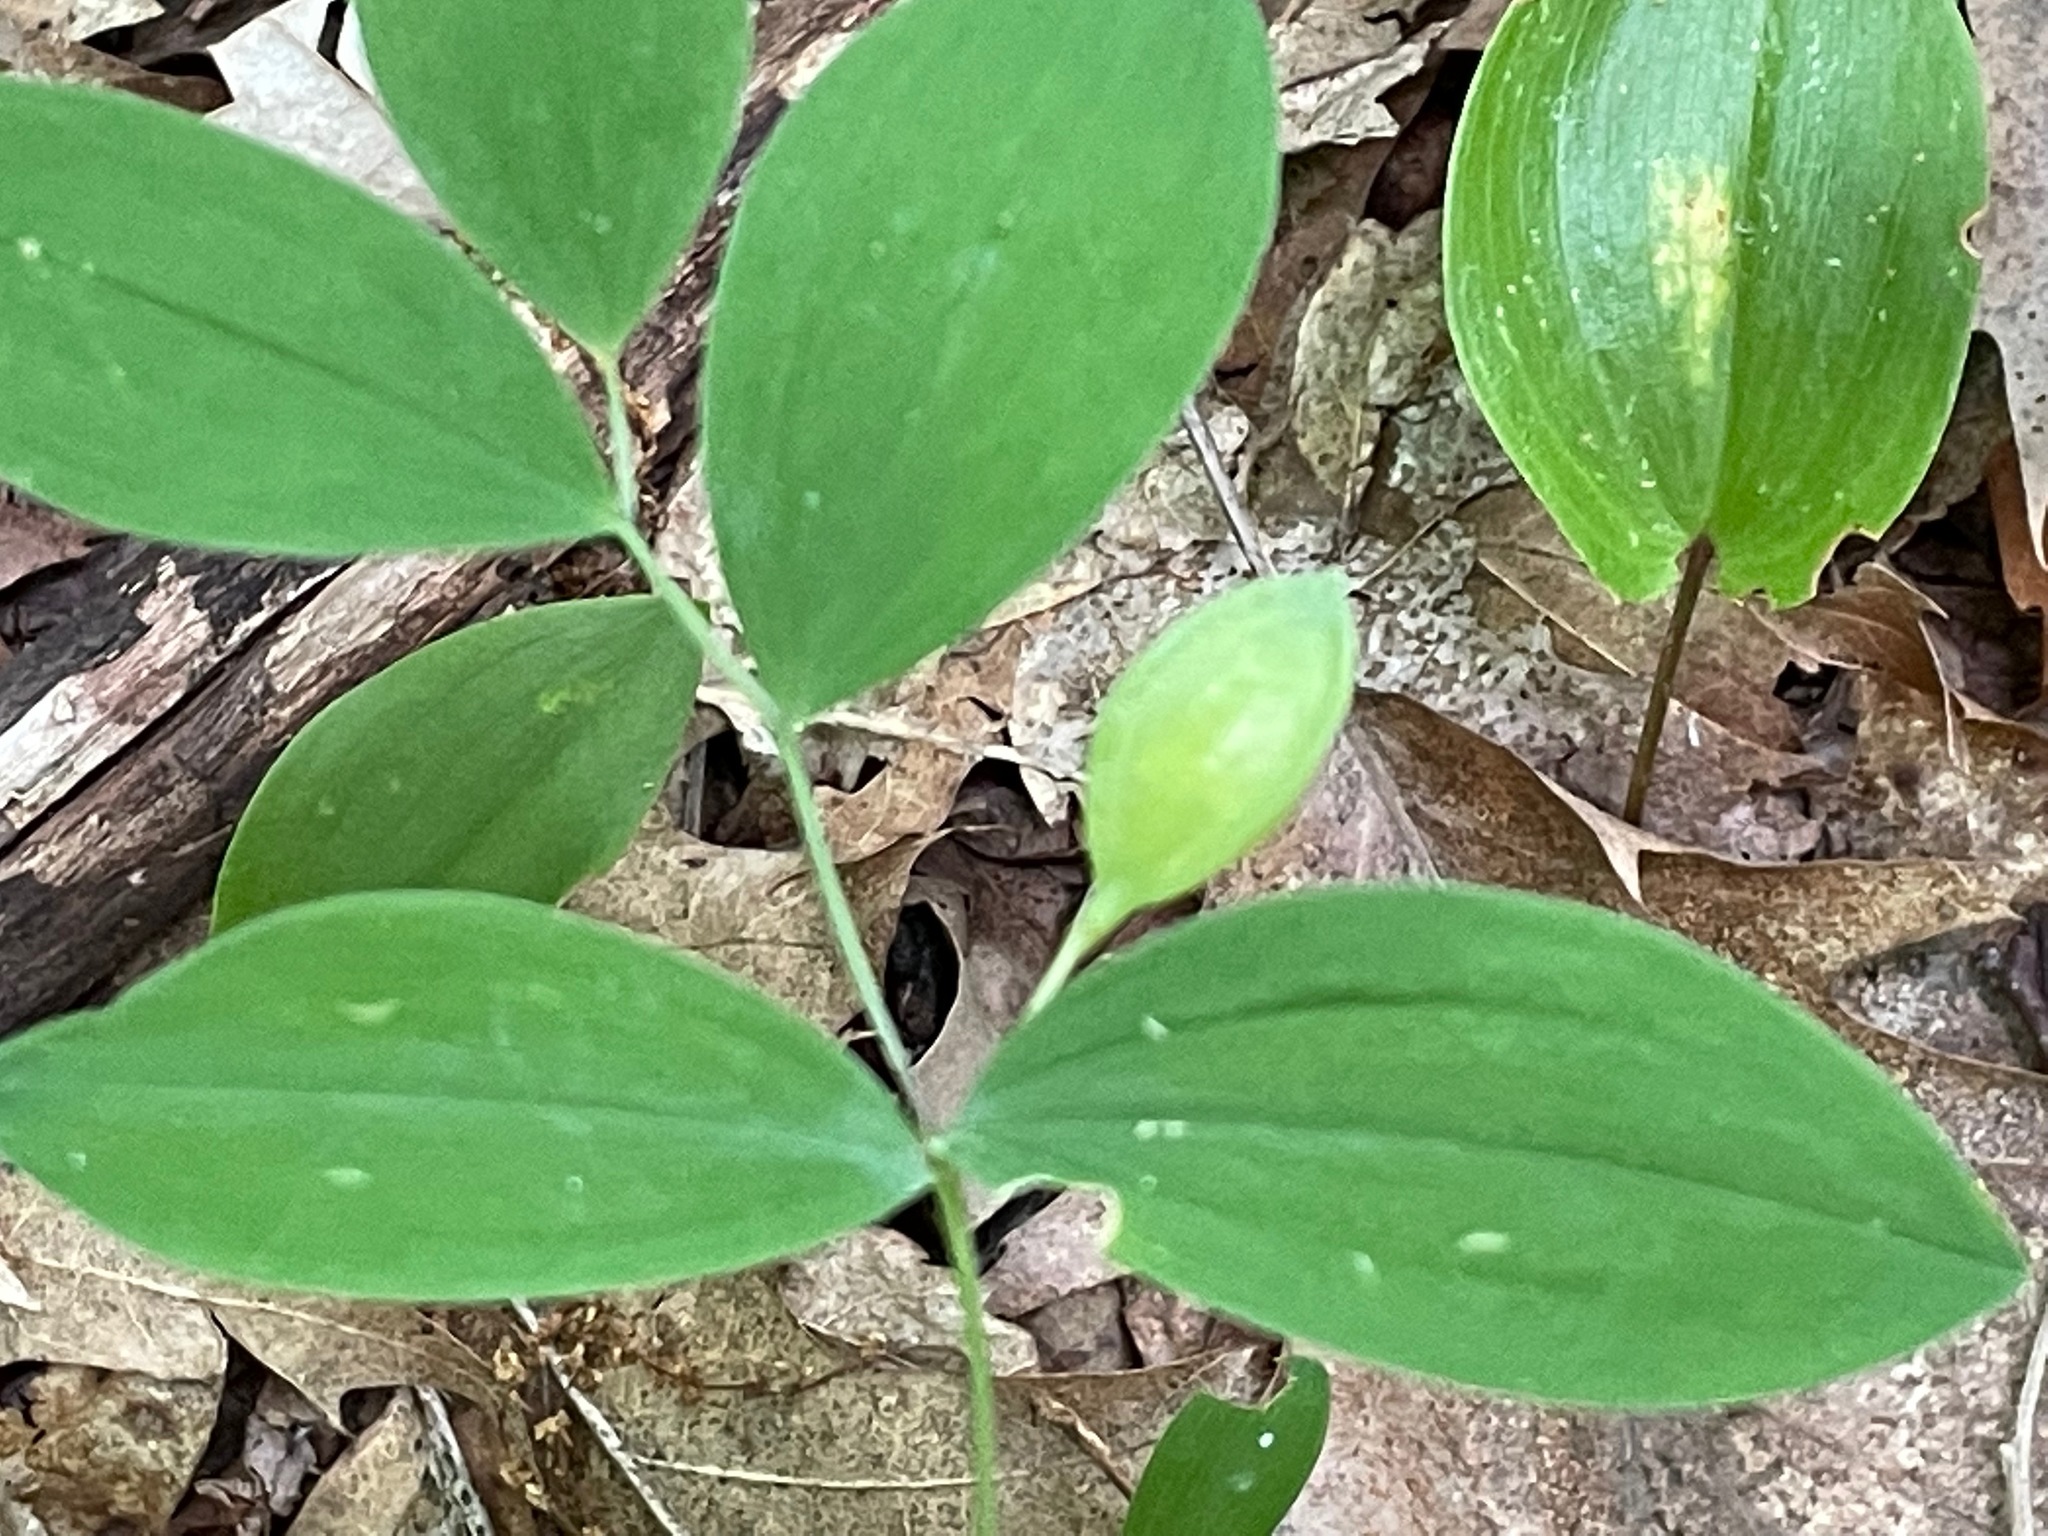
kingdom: Plantae
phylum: Tracheophyta
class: Liliopsida
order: Liliales
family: Colchicaceae
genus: Uvularia
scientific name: Uvularia sessilifolia
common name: Straw-lily
